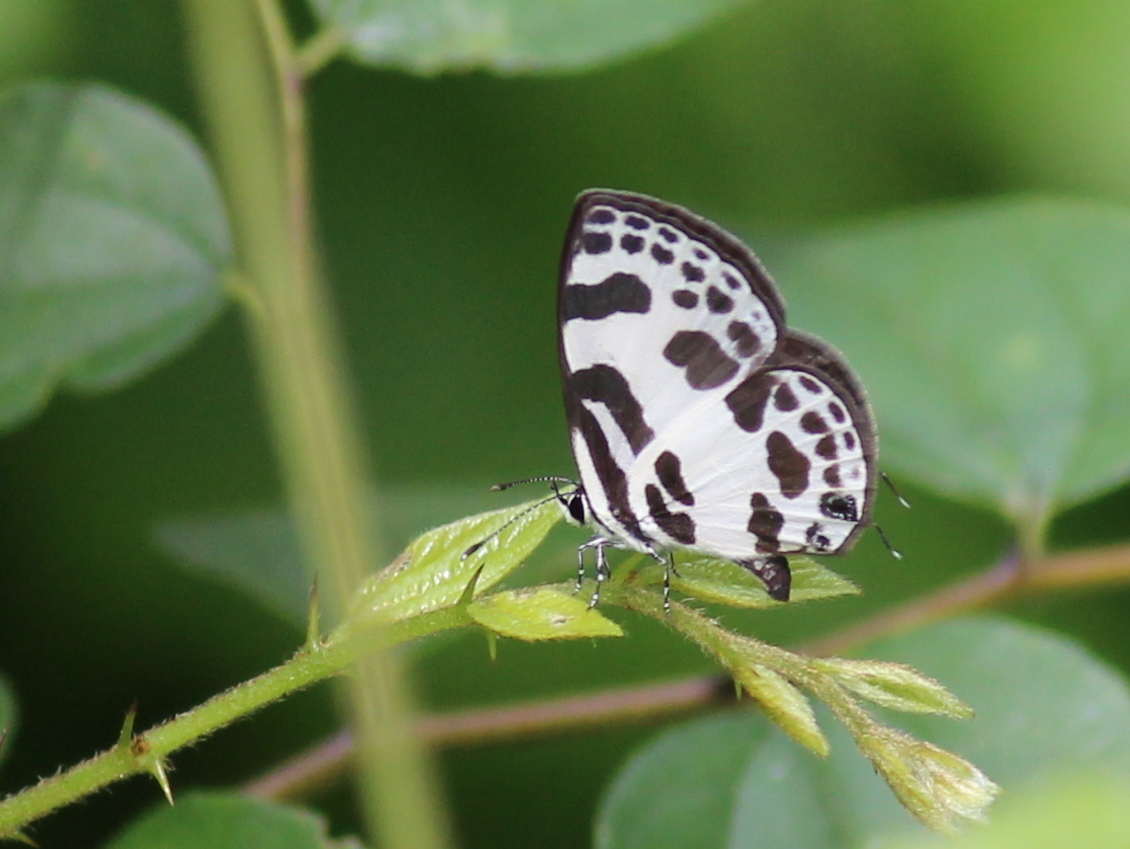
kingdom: Animalia
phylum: Arthropoda
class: Insecta
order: Lepidoptera
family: Lycaenidae
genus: Discolampa
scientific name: Discolampa ethion
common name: Banded blue pierrot
